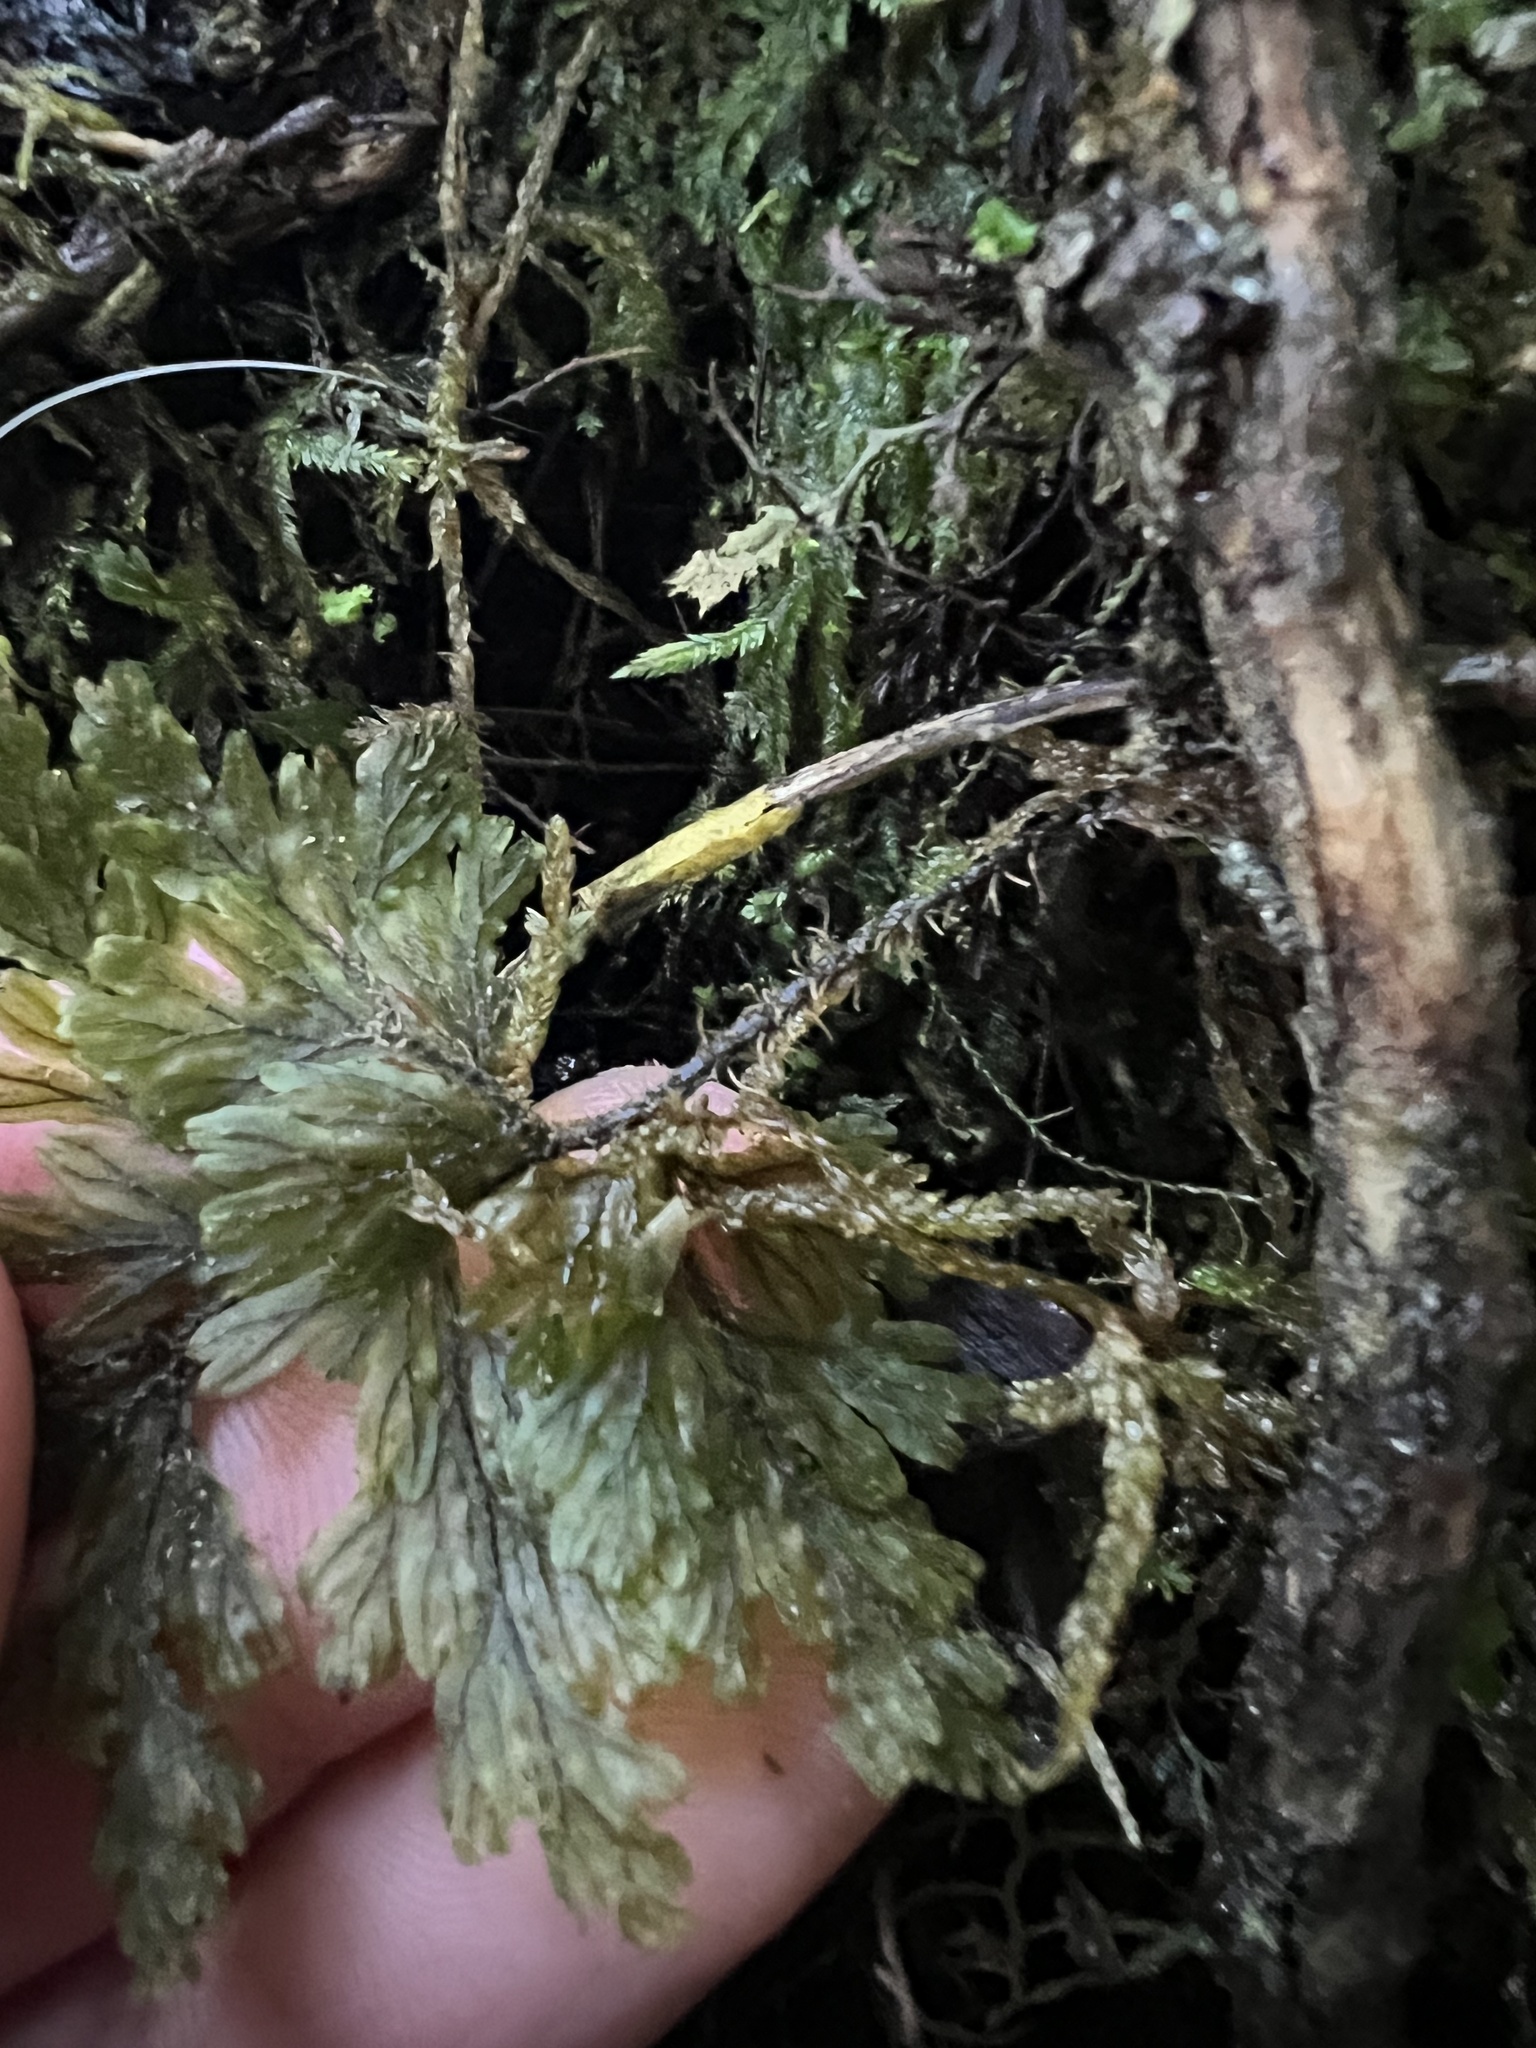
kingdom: Plantae
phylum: Tracheophyta
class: Polypodiopsida
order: Hymenophyllales
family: Hymenophyllaceae
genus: Hymenophyllum
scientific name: Hymenophyllum scabrum
